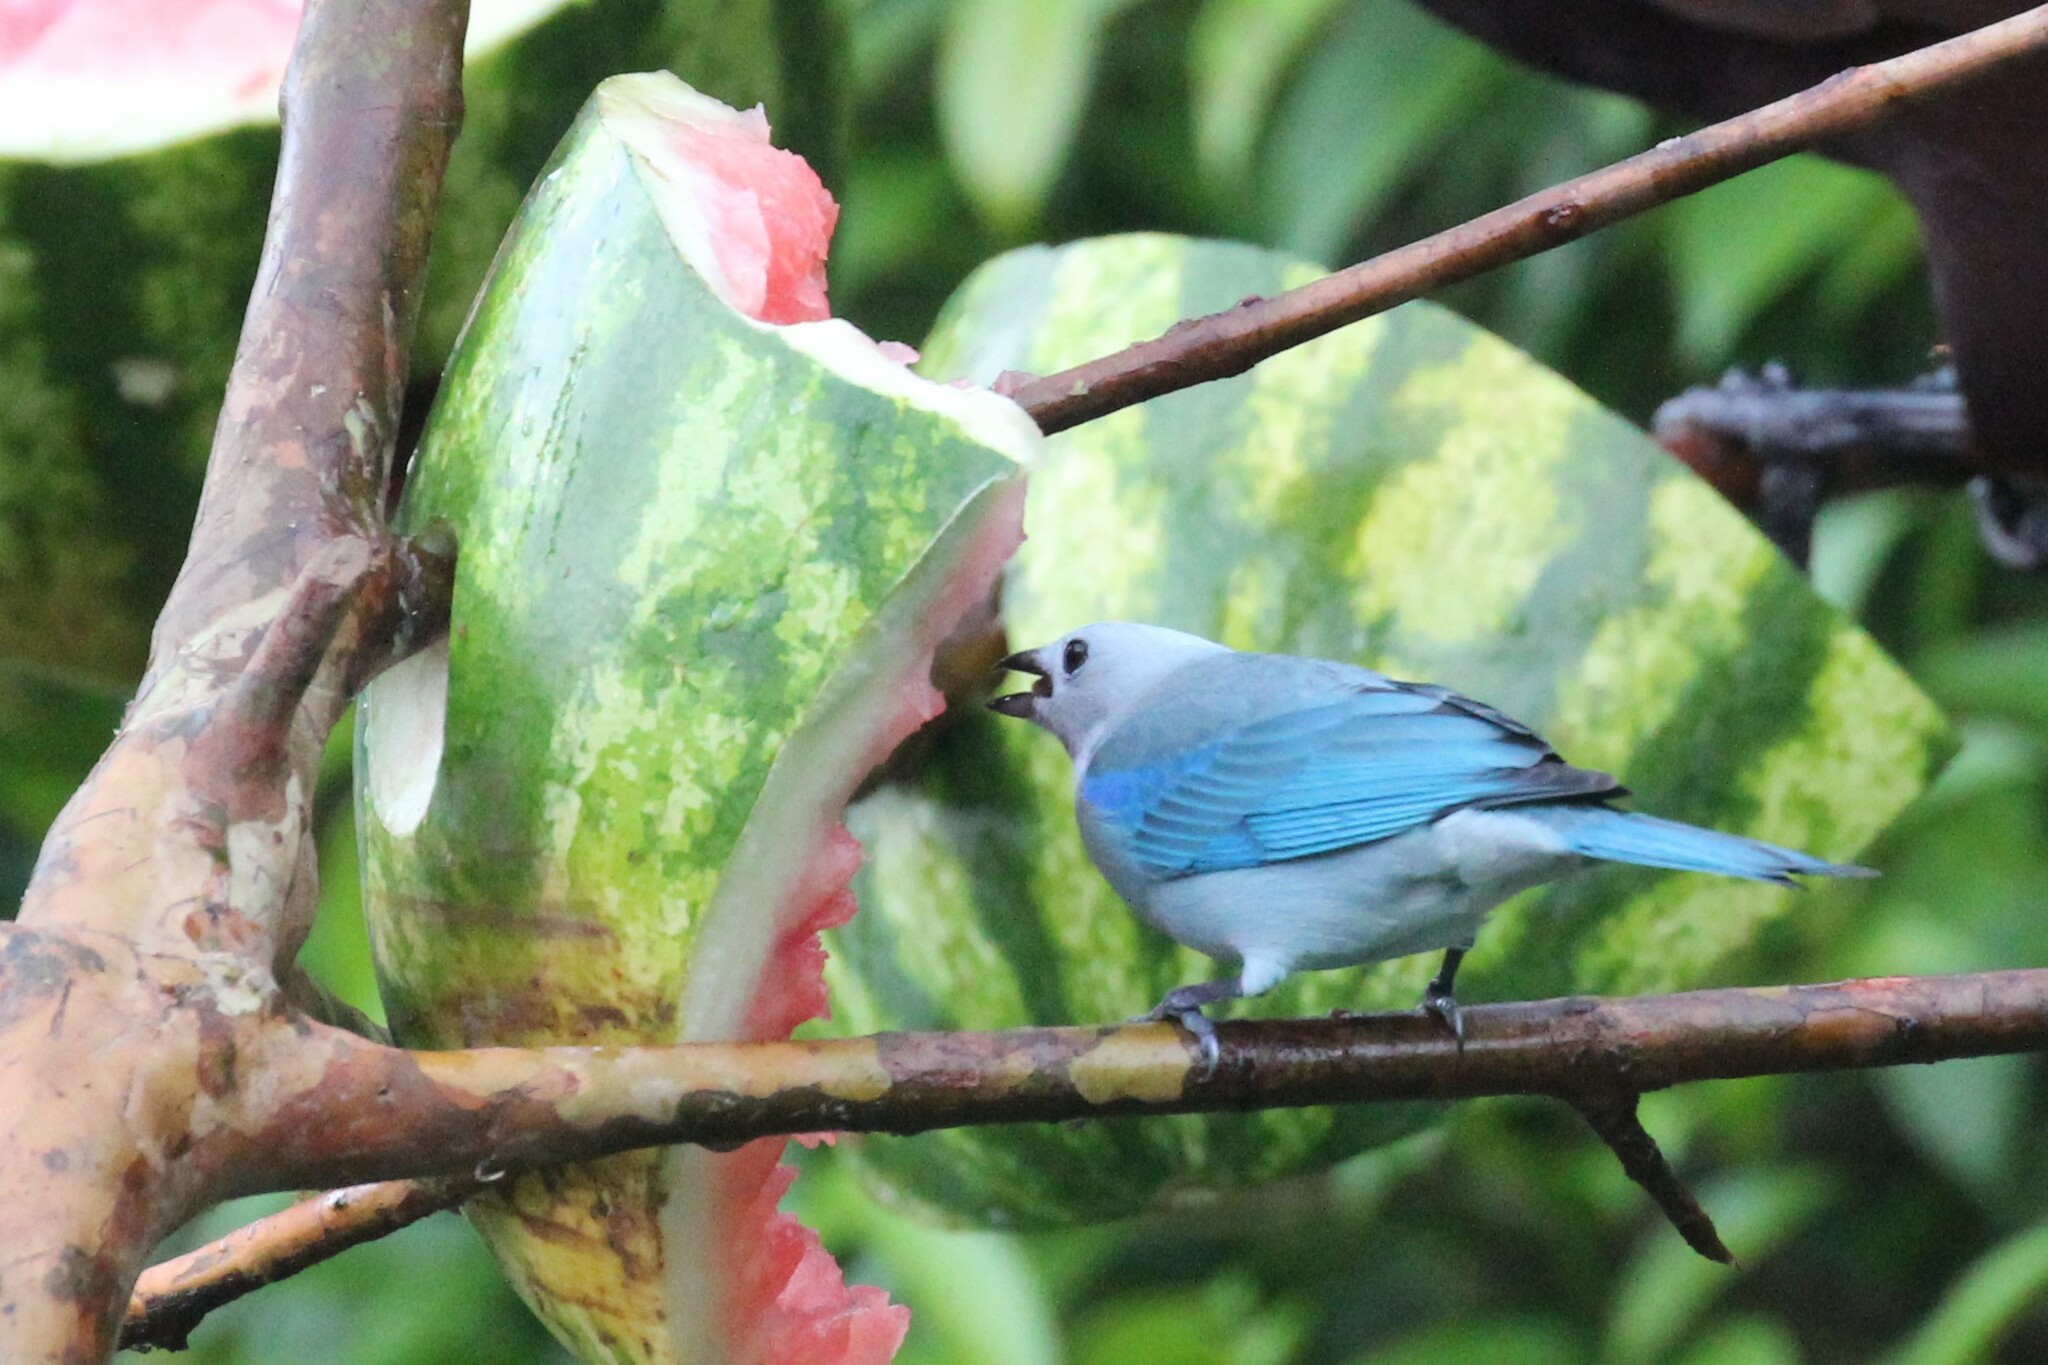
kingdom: Animalia
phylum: Chordata
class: Aves
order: Passeriformes
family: Thraupidae
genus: Thraupis
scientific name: Thraupis episcopus
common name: Blue-grey tanager
